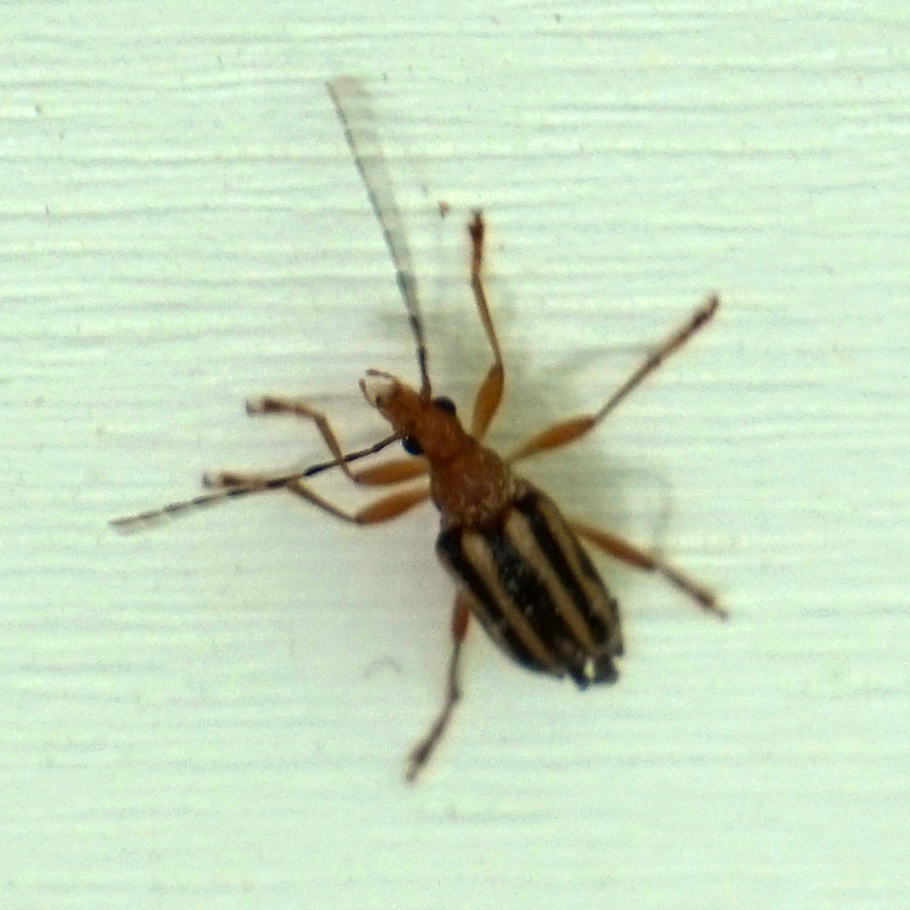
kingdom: Animalia
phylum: Arthropoda
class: Insecta
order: Coleoptera
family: Cerambycidae
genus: Metacmaeops
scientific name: Metacmaeops vittata
